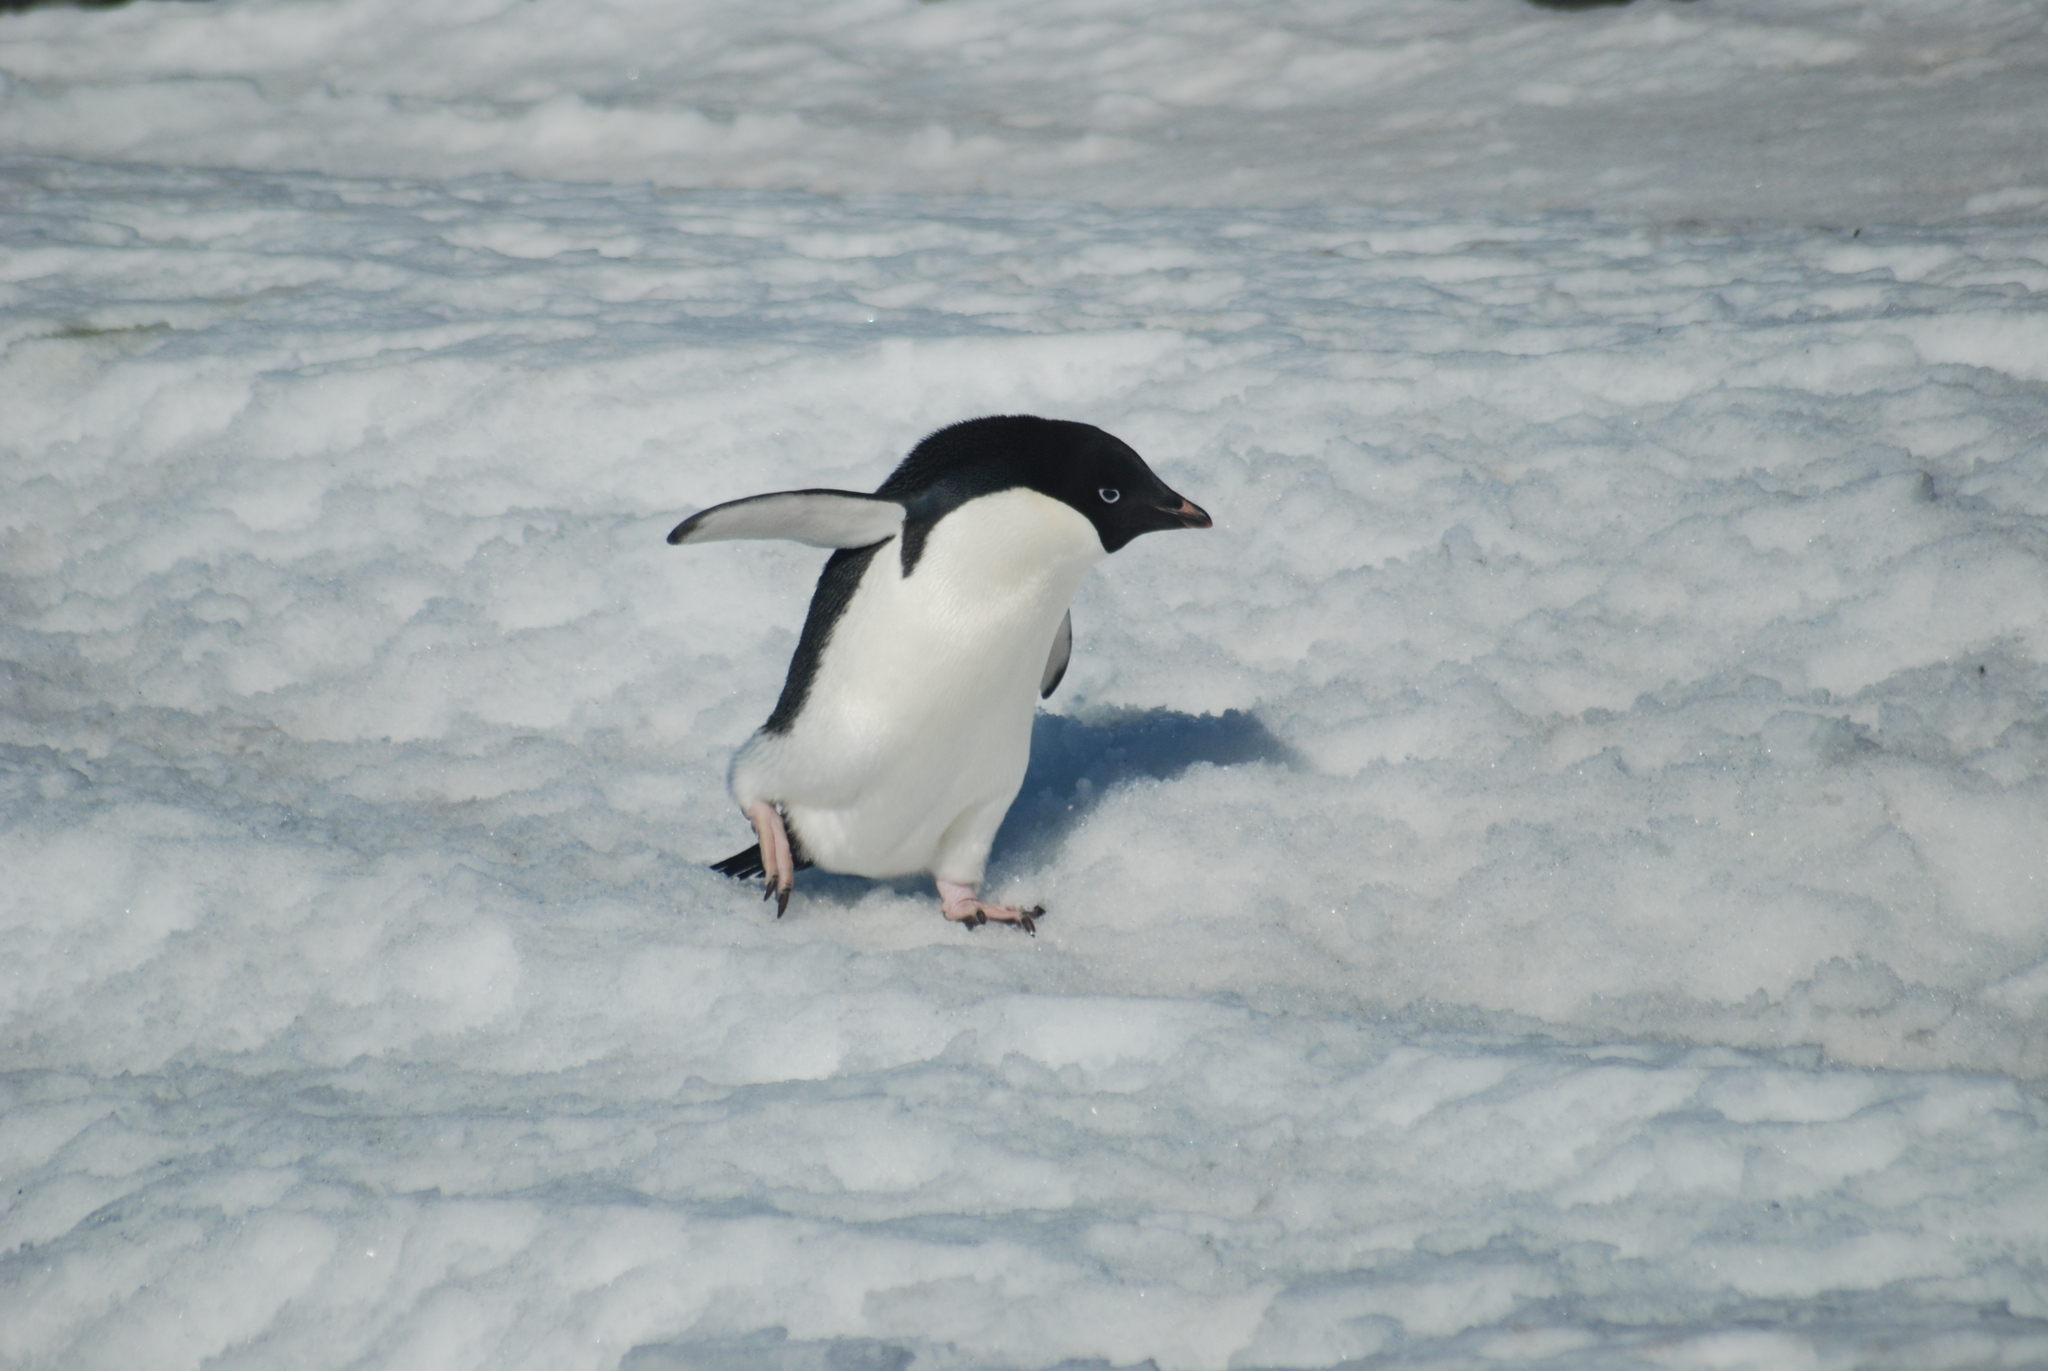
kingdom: Animalia
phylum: Chordata
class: Aves
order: Sphenisciformes
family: Spheniscidae
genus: Pygoscelis
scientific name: Pygoscelis adeliae
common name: Adelie penguin
